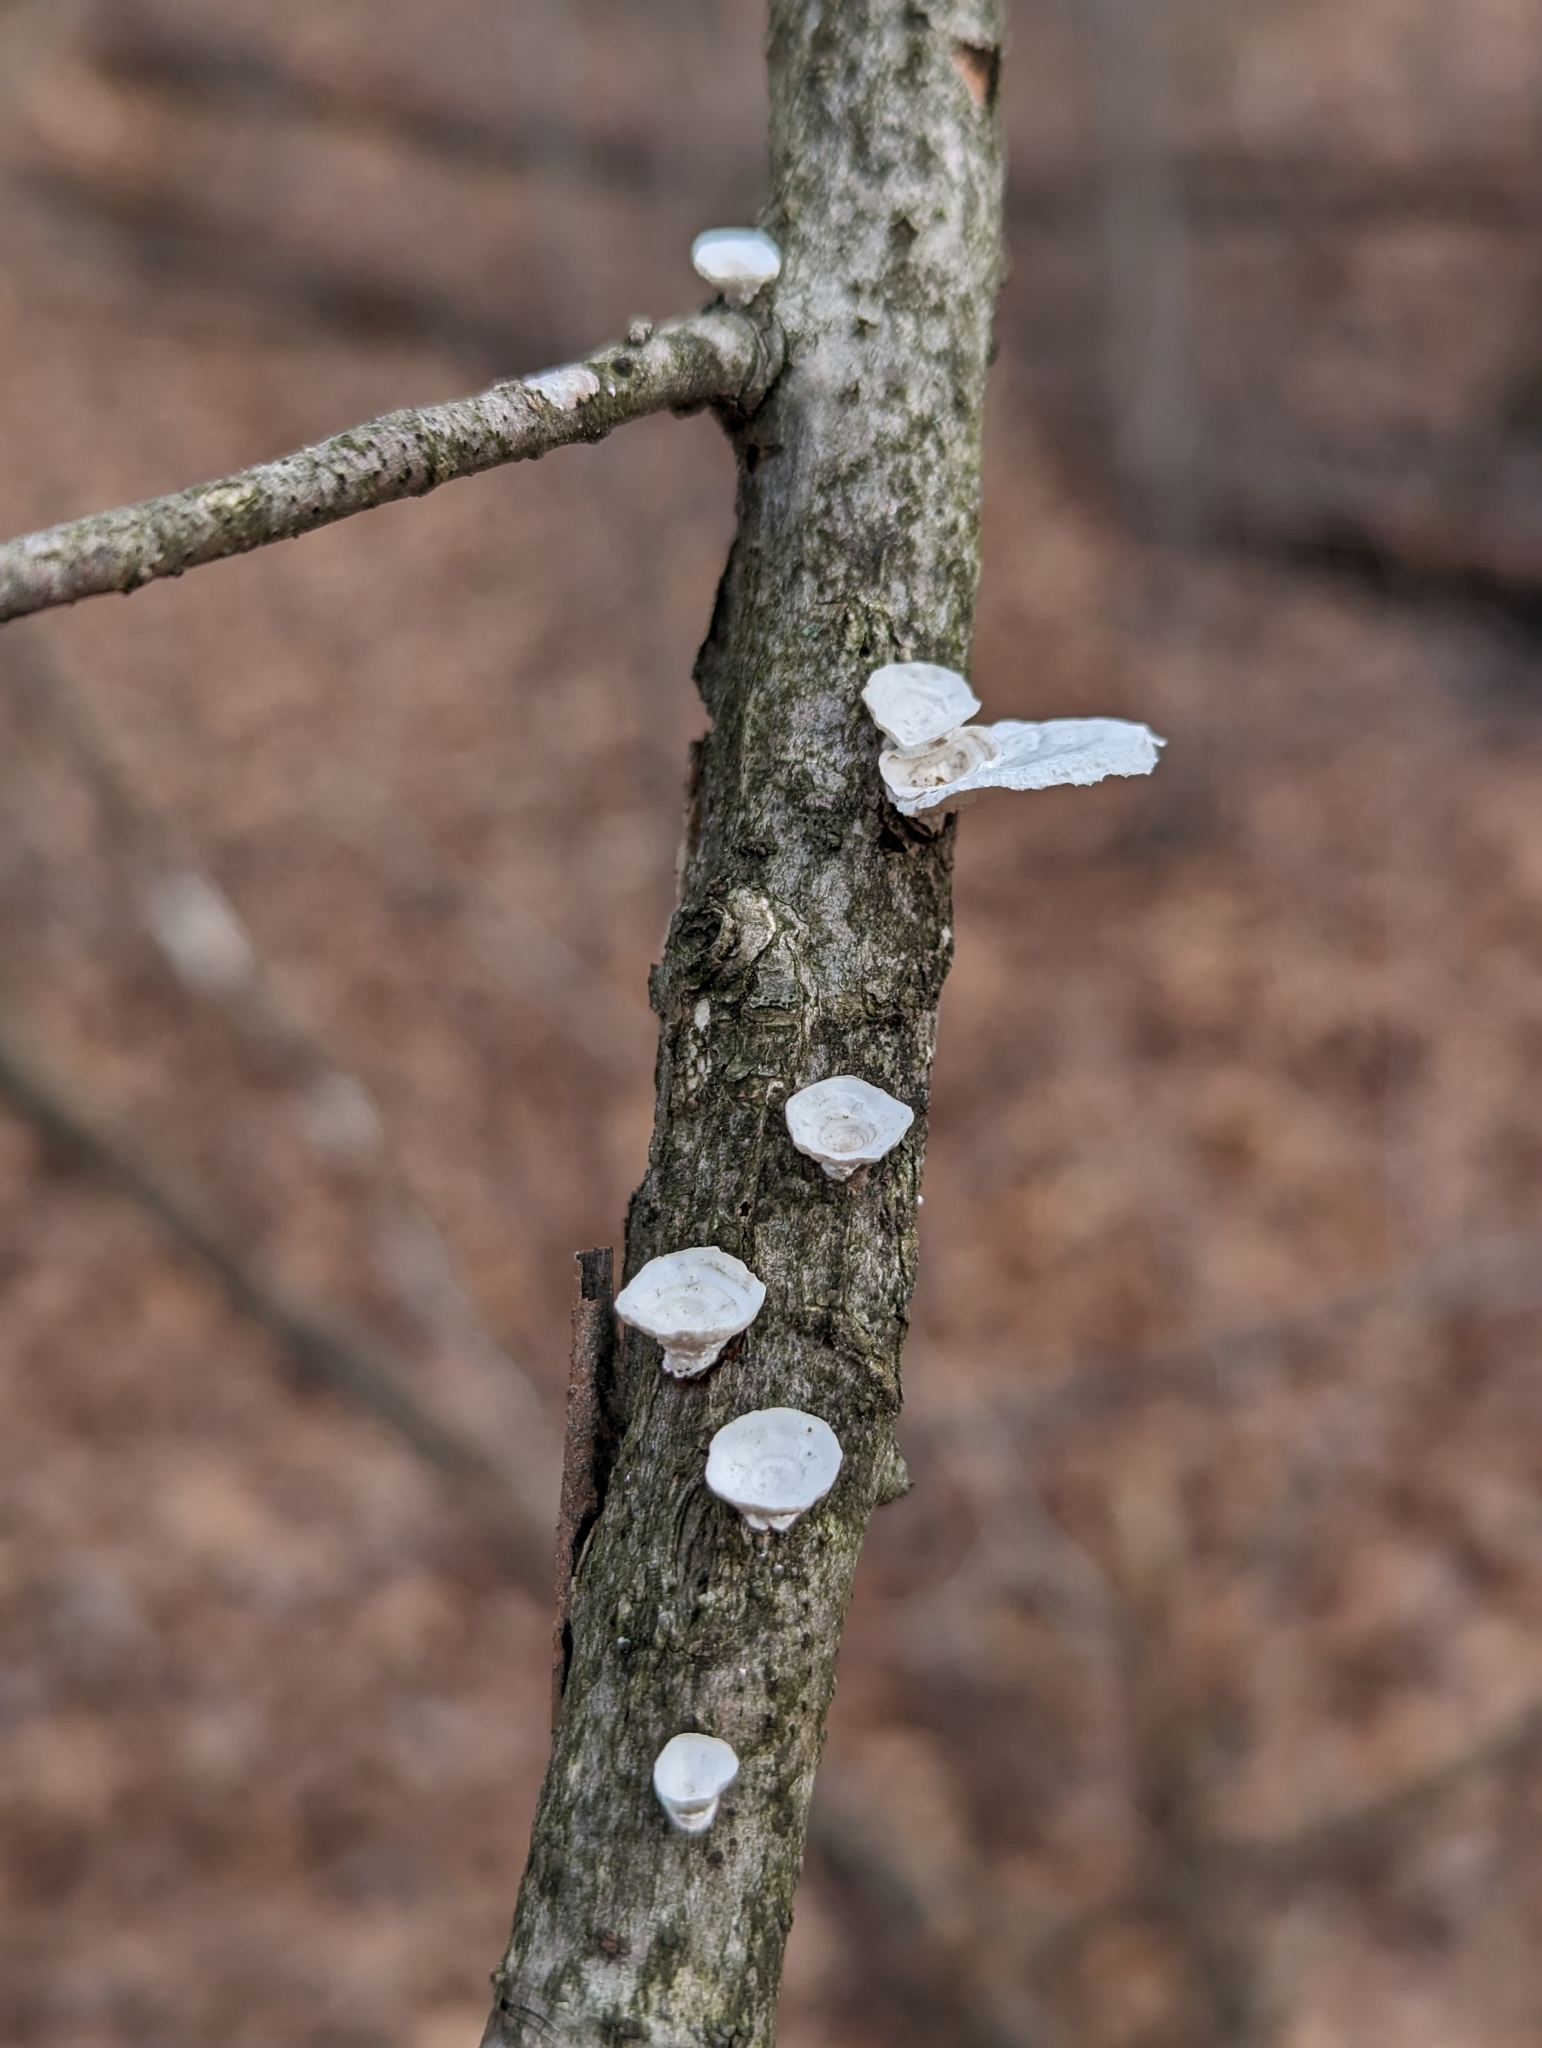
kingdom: Fungi
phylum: Basidiomycota
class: Agaricomycetes
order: Polyporales
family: Polyporaceae
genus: Poronidulus
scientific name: Poronidulus conchifer
